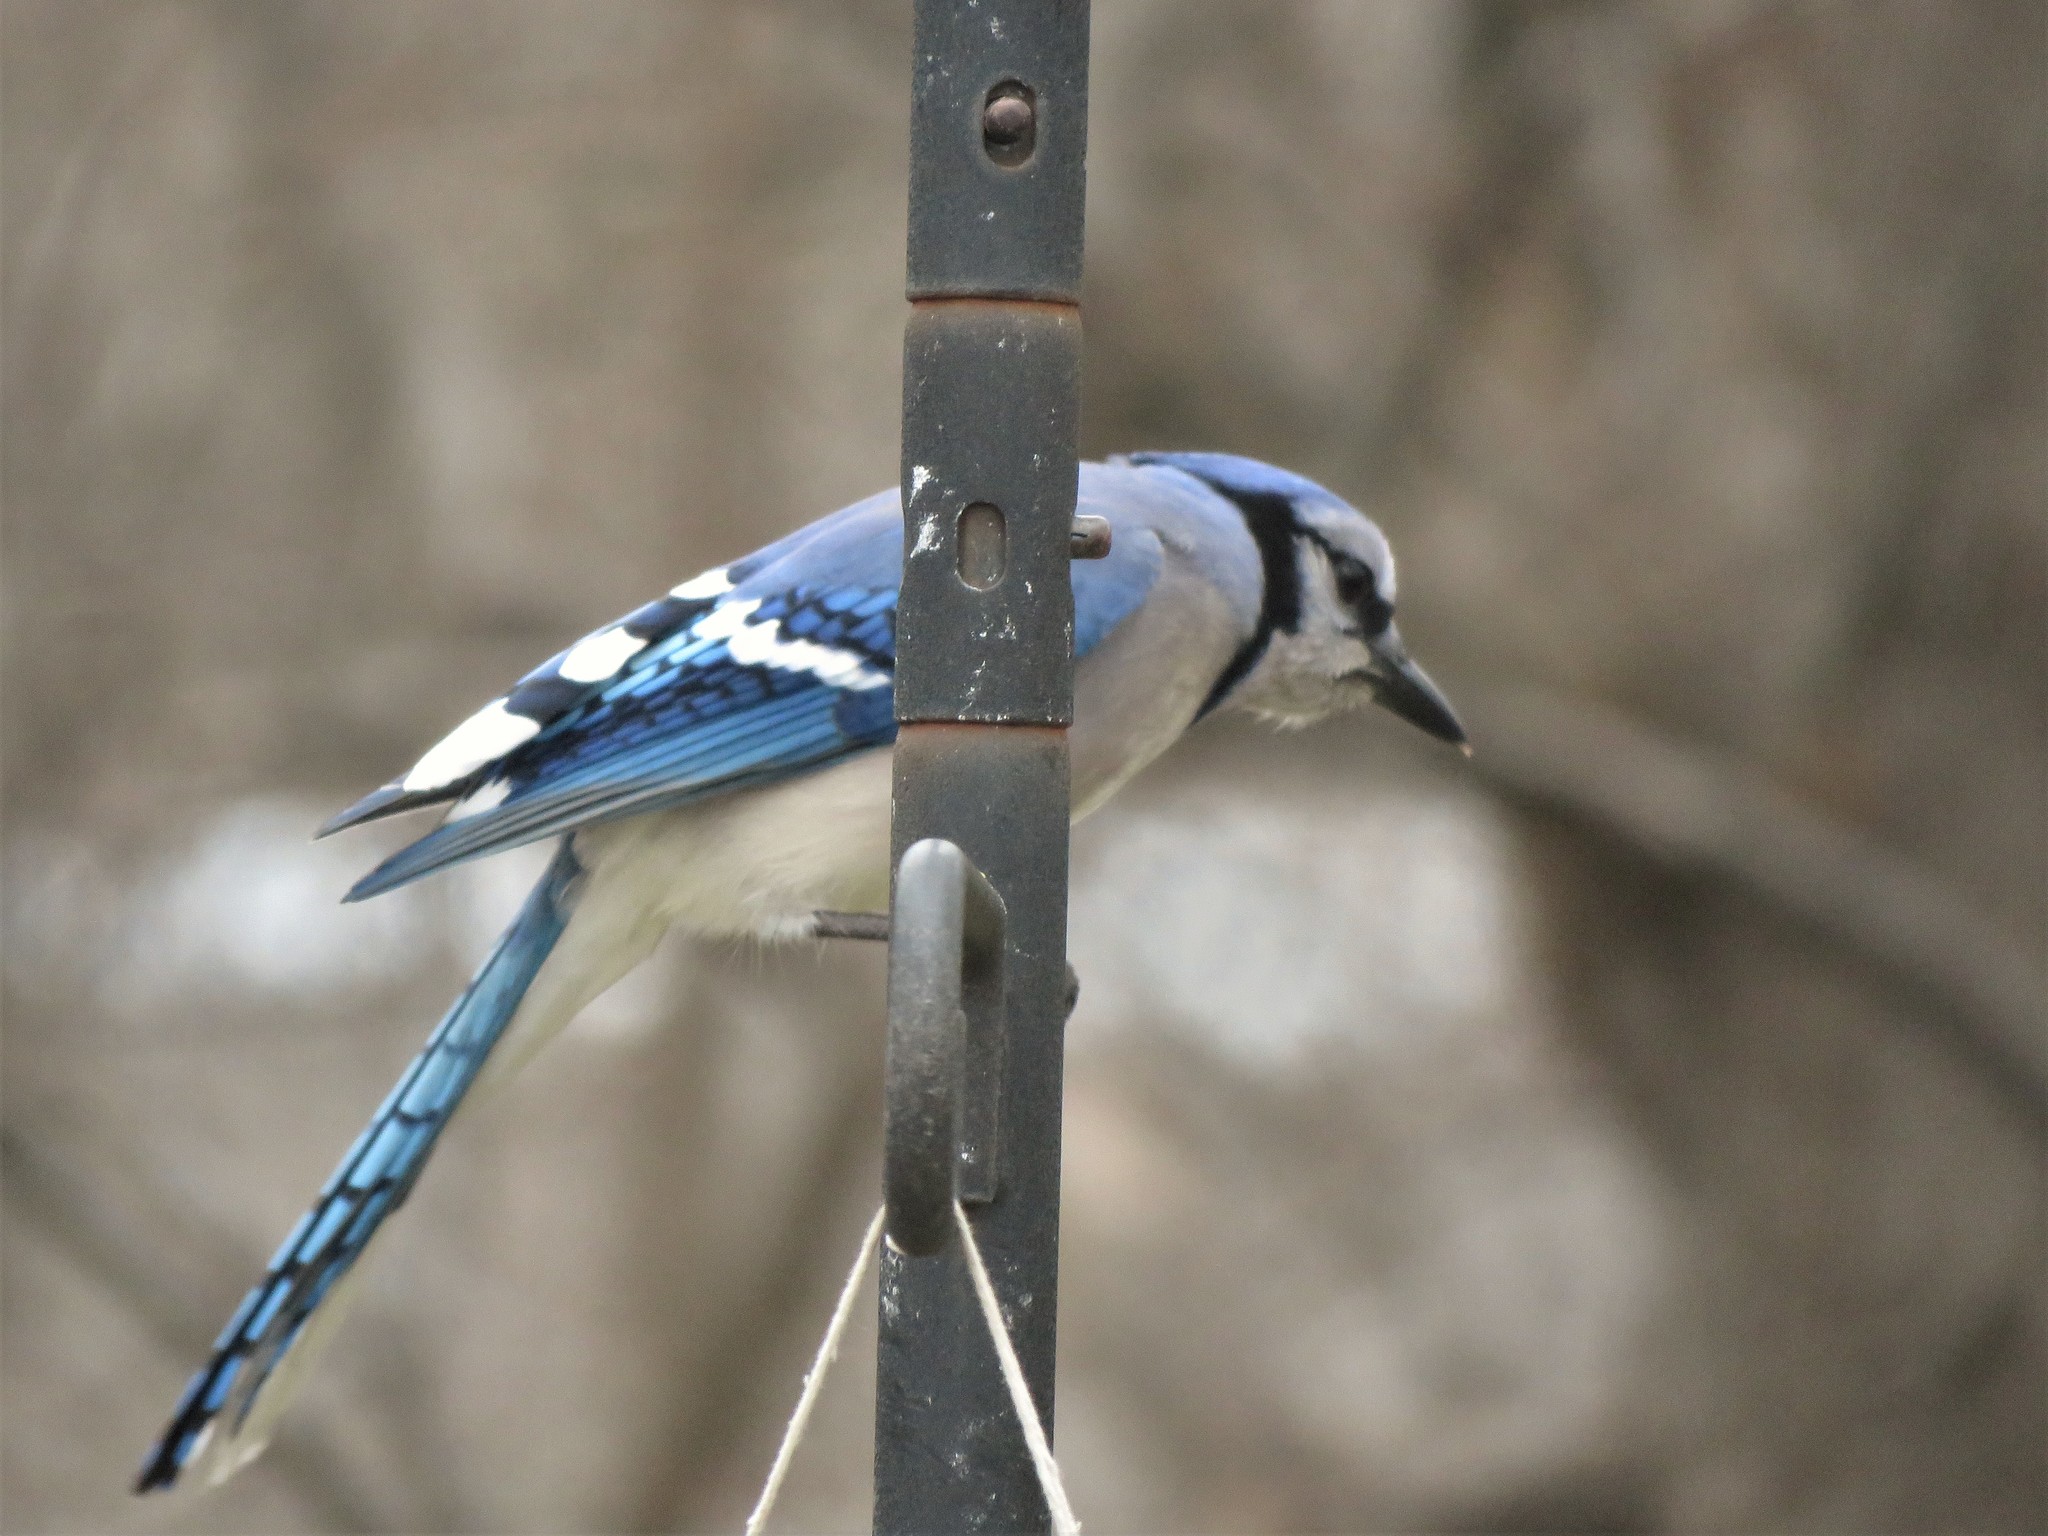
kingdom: Animalia
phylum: Chordata
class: Aves
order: Passeriformes
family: Corvidae
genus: Cyanocitta
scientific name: Cyanocitta cristata
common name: Blue jay
